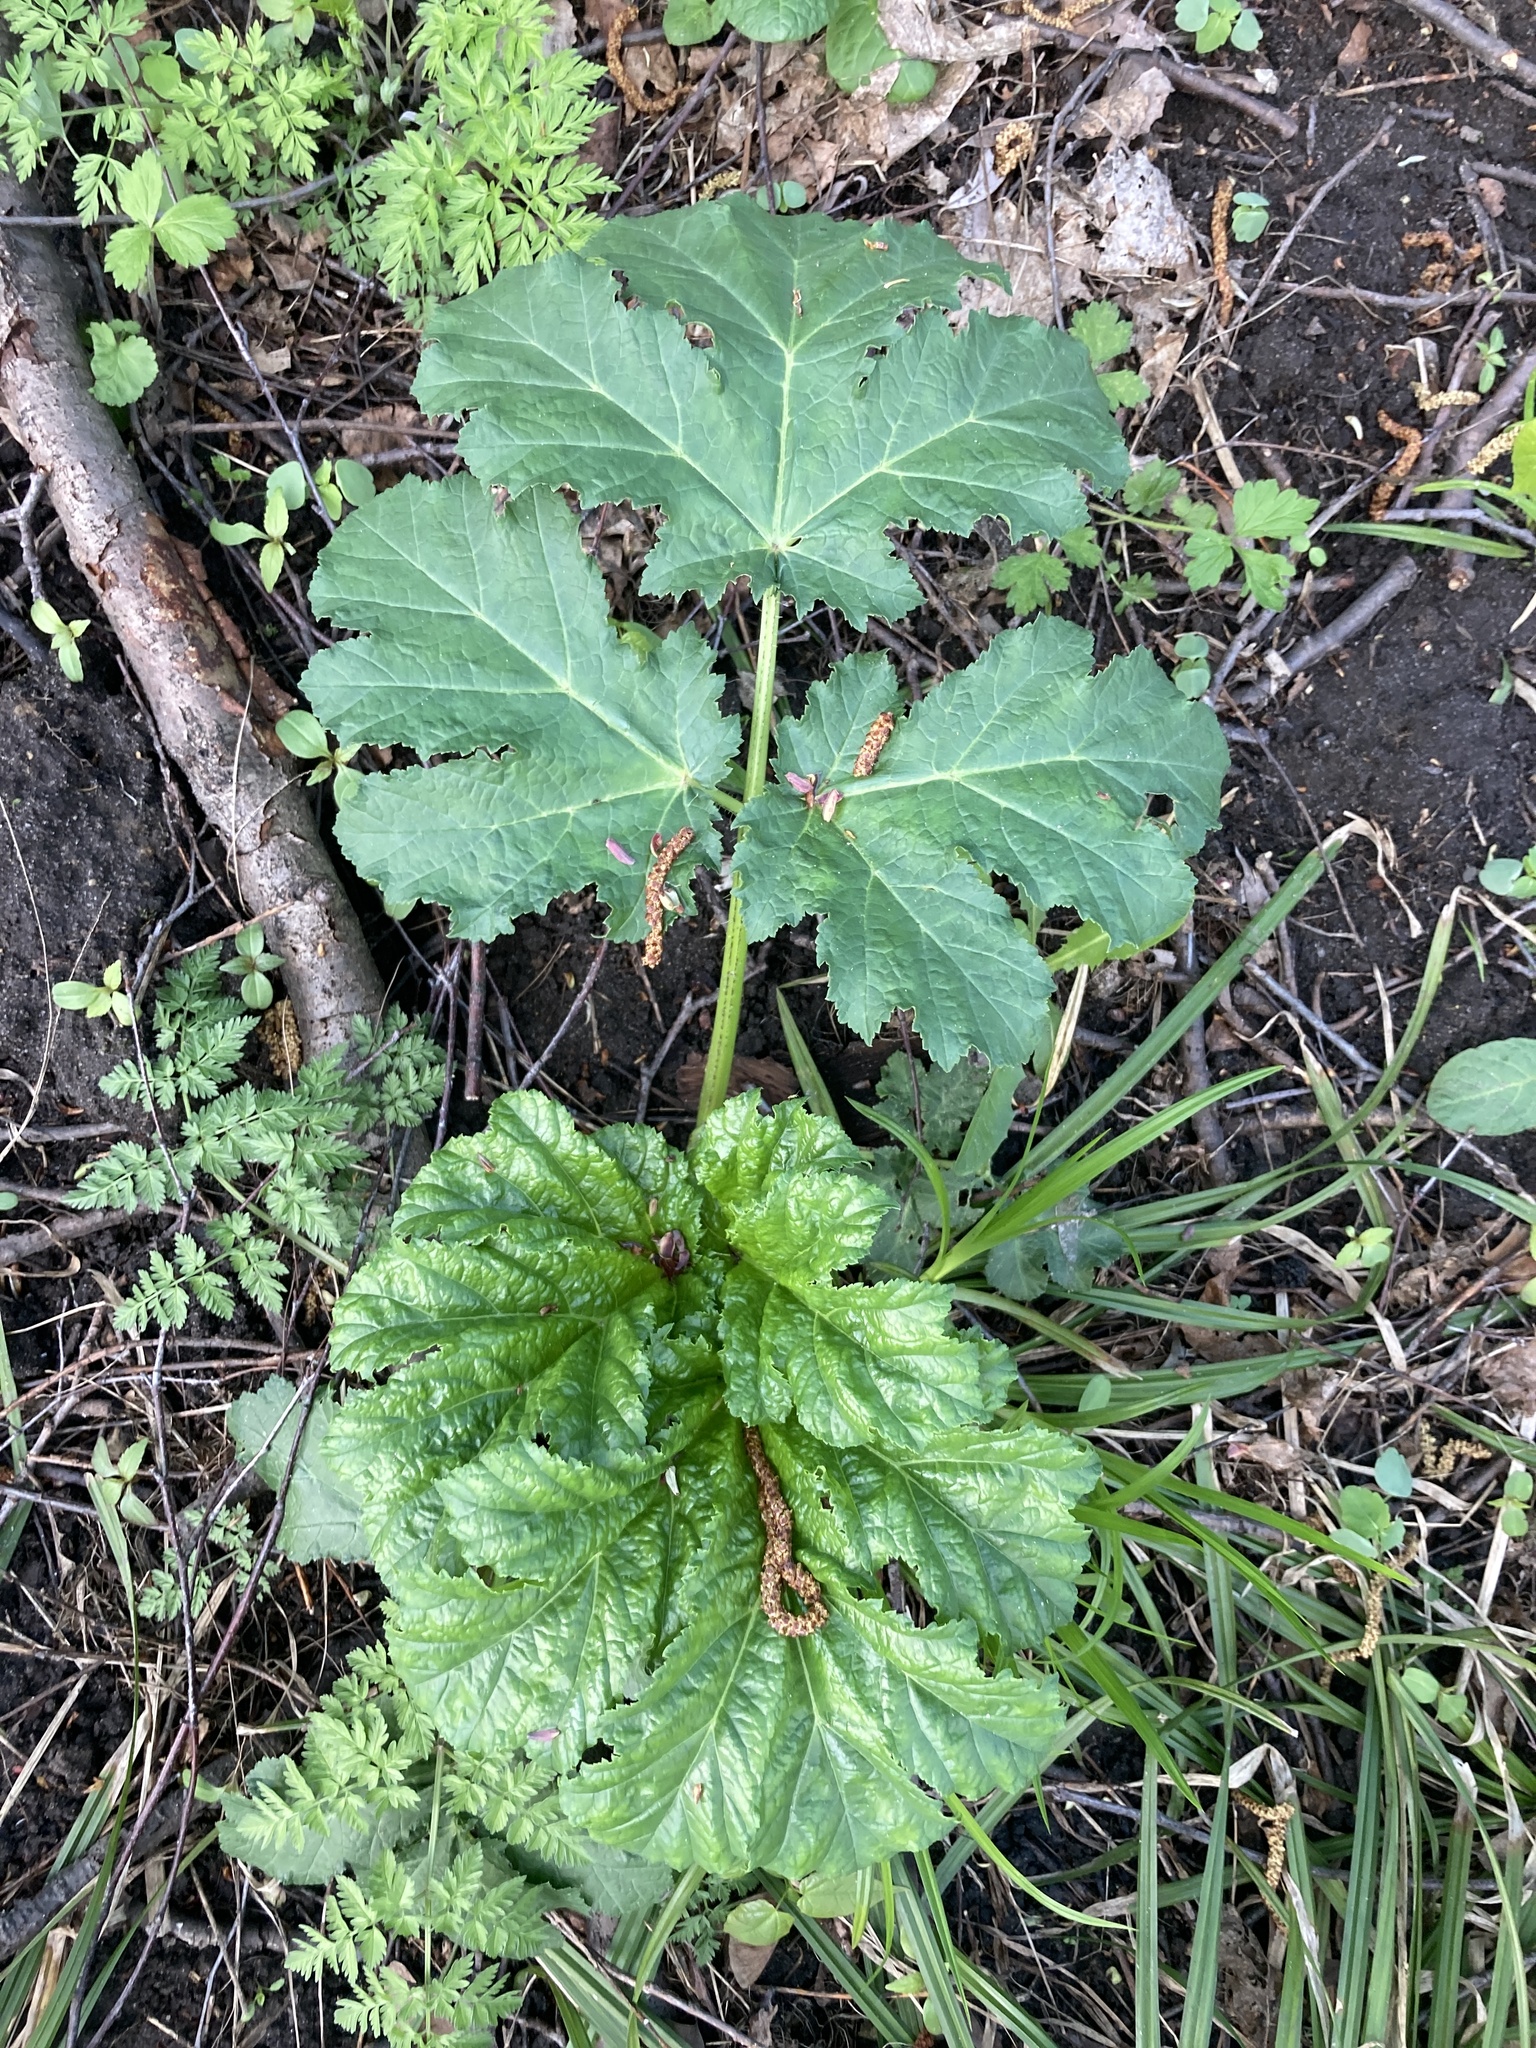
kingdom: Plantae
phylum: Tracheophyta
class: Magnoliopsida
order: Apiales
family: Apiaceae
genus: Heracleum
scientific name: Heracleum sosnowskyi
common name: Sosnowsky's hogweed
